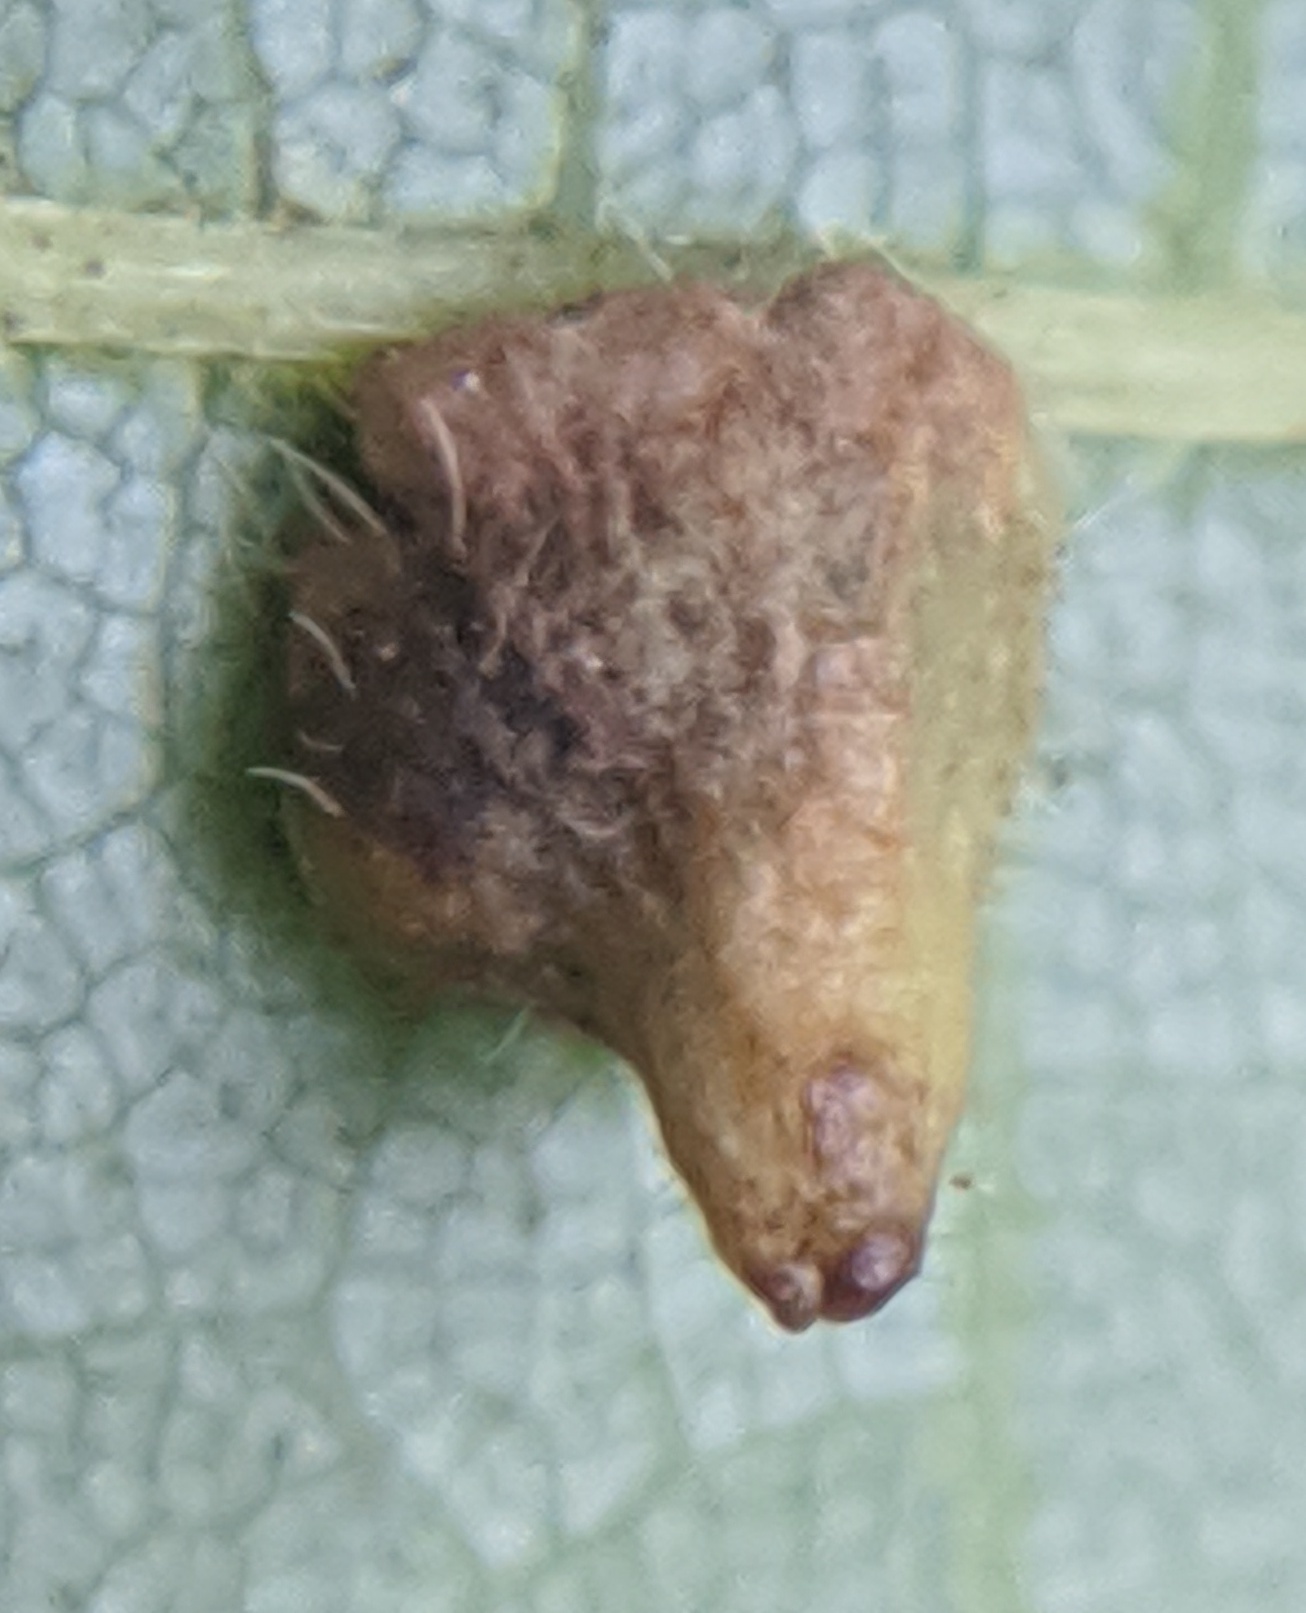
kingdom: Animalia
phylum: Arthropoda
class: Insecta
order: Diptera
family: Cecidomyiidae
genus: Caryomyia
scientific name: Caryomyia inclinata
